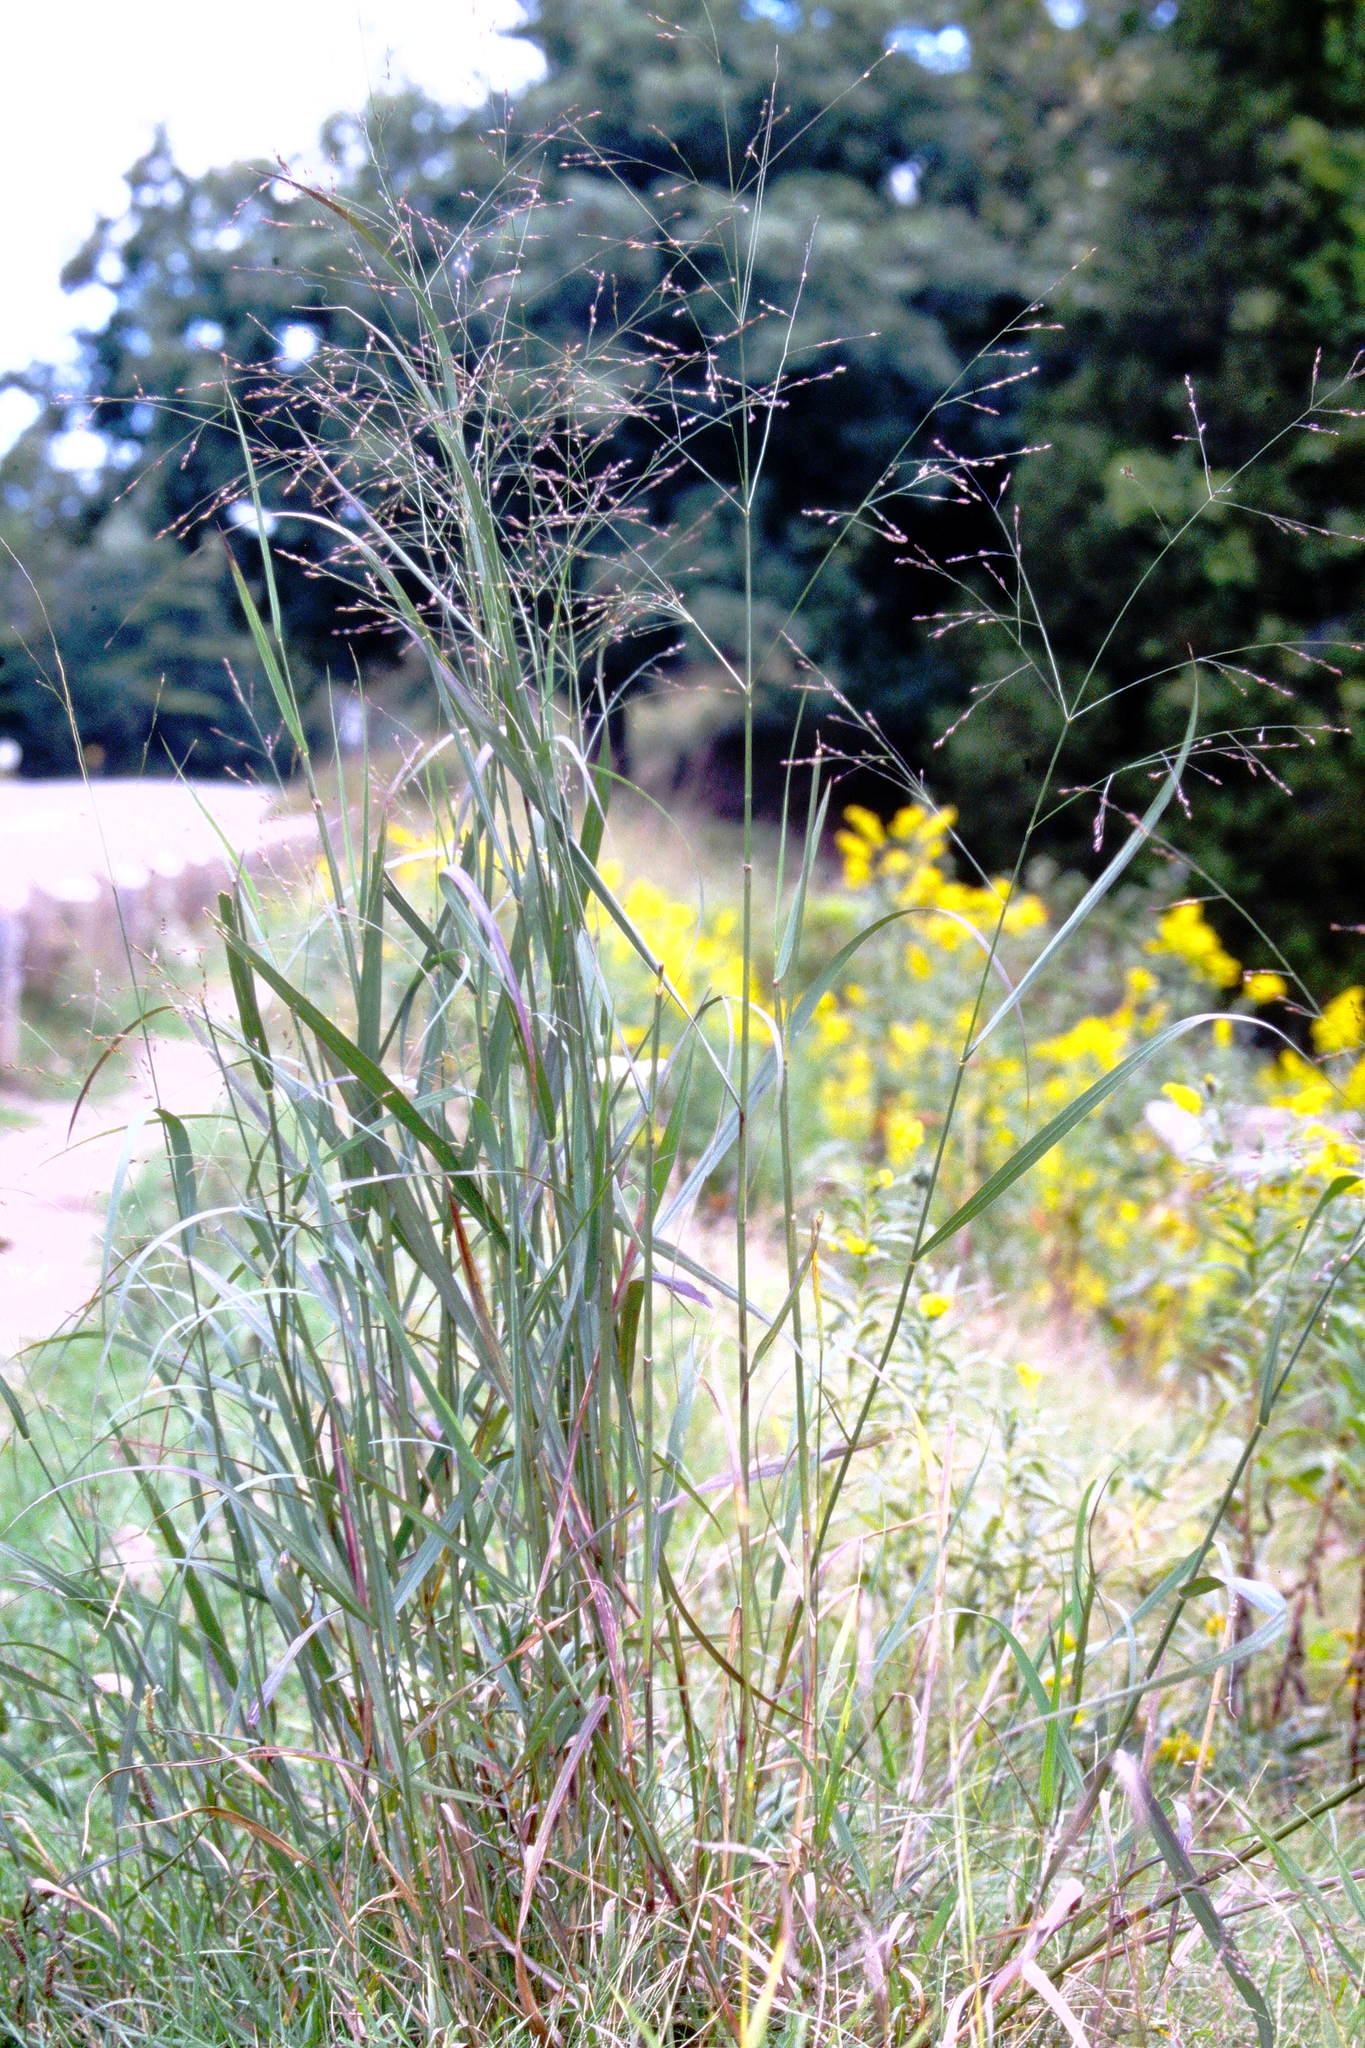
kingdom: Plantae
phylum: Tracheophyta
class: Liliopsida
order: Poales
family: Poaceae
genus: Panicum
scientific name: Panicum virgatum
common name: Switchgrass
